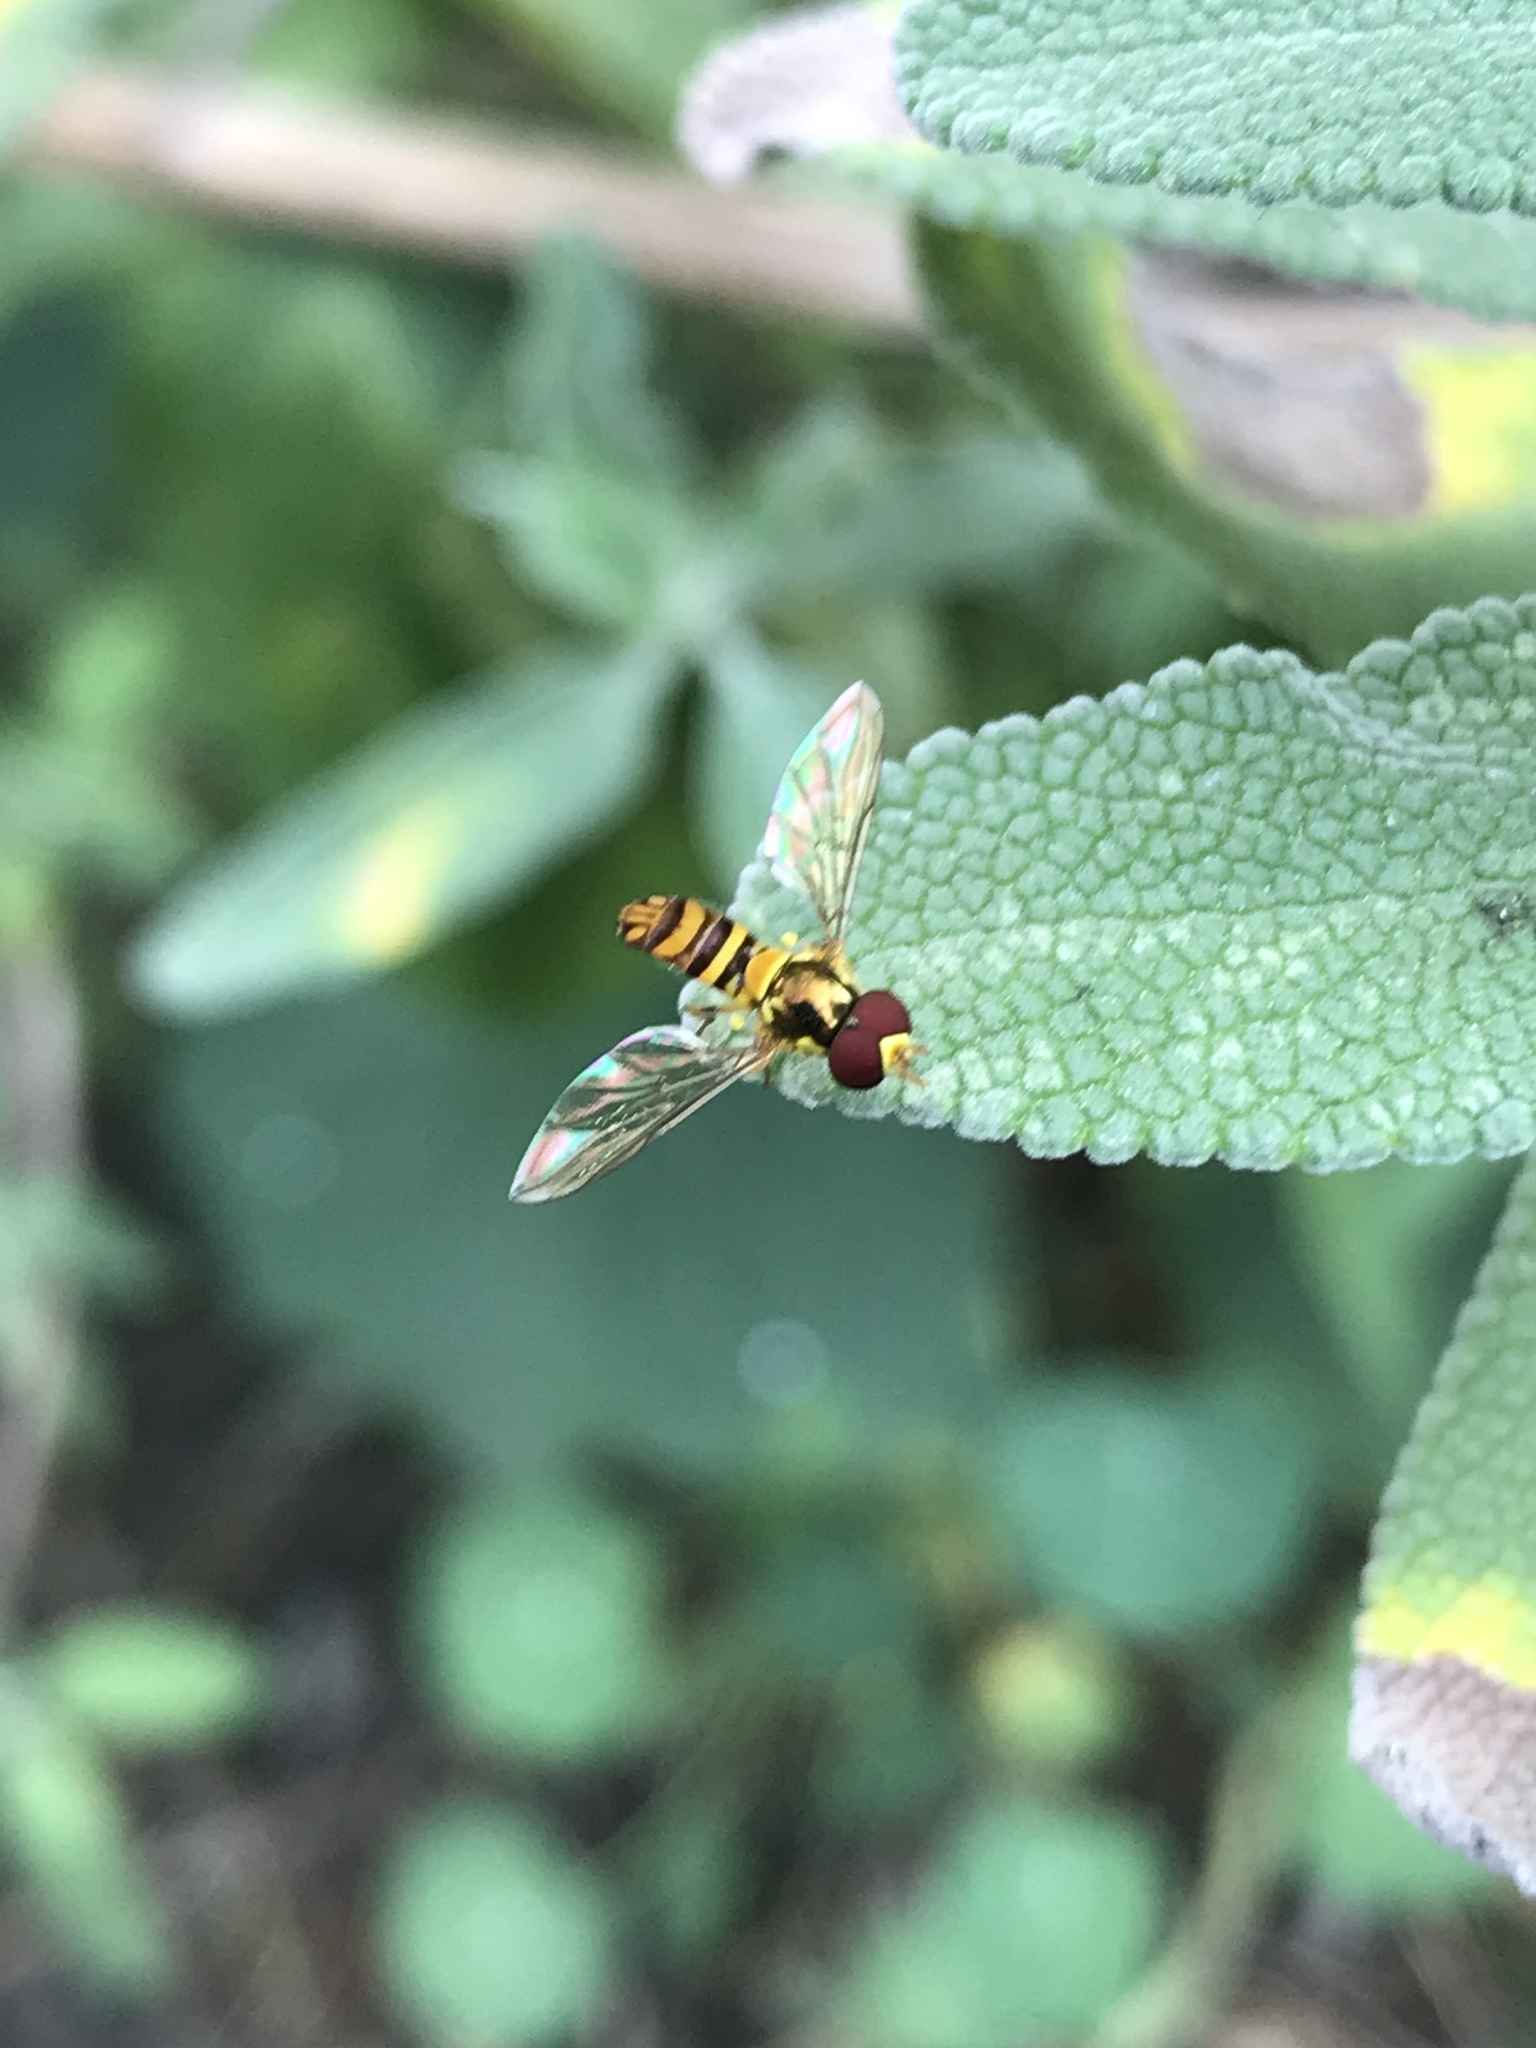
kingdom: Animalia
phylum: Arthropoda
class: Insecta
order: Diptera
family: Syrphidae
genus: Allograpta
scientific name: Allograpta obliqua
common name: Common oblique syrphid
